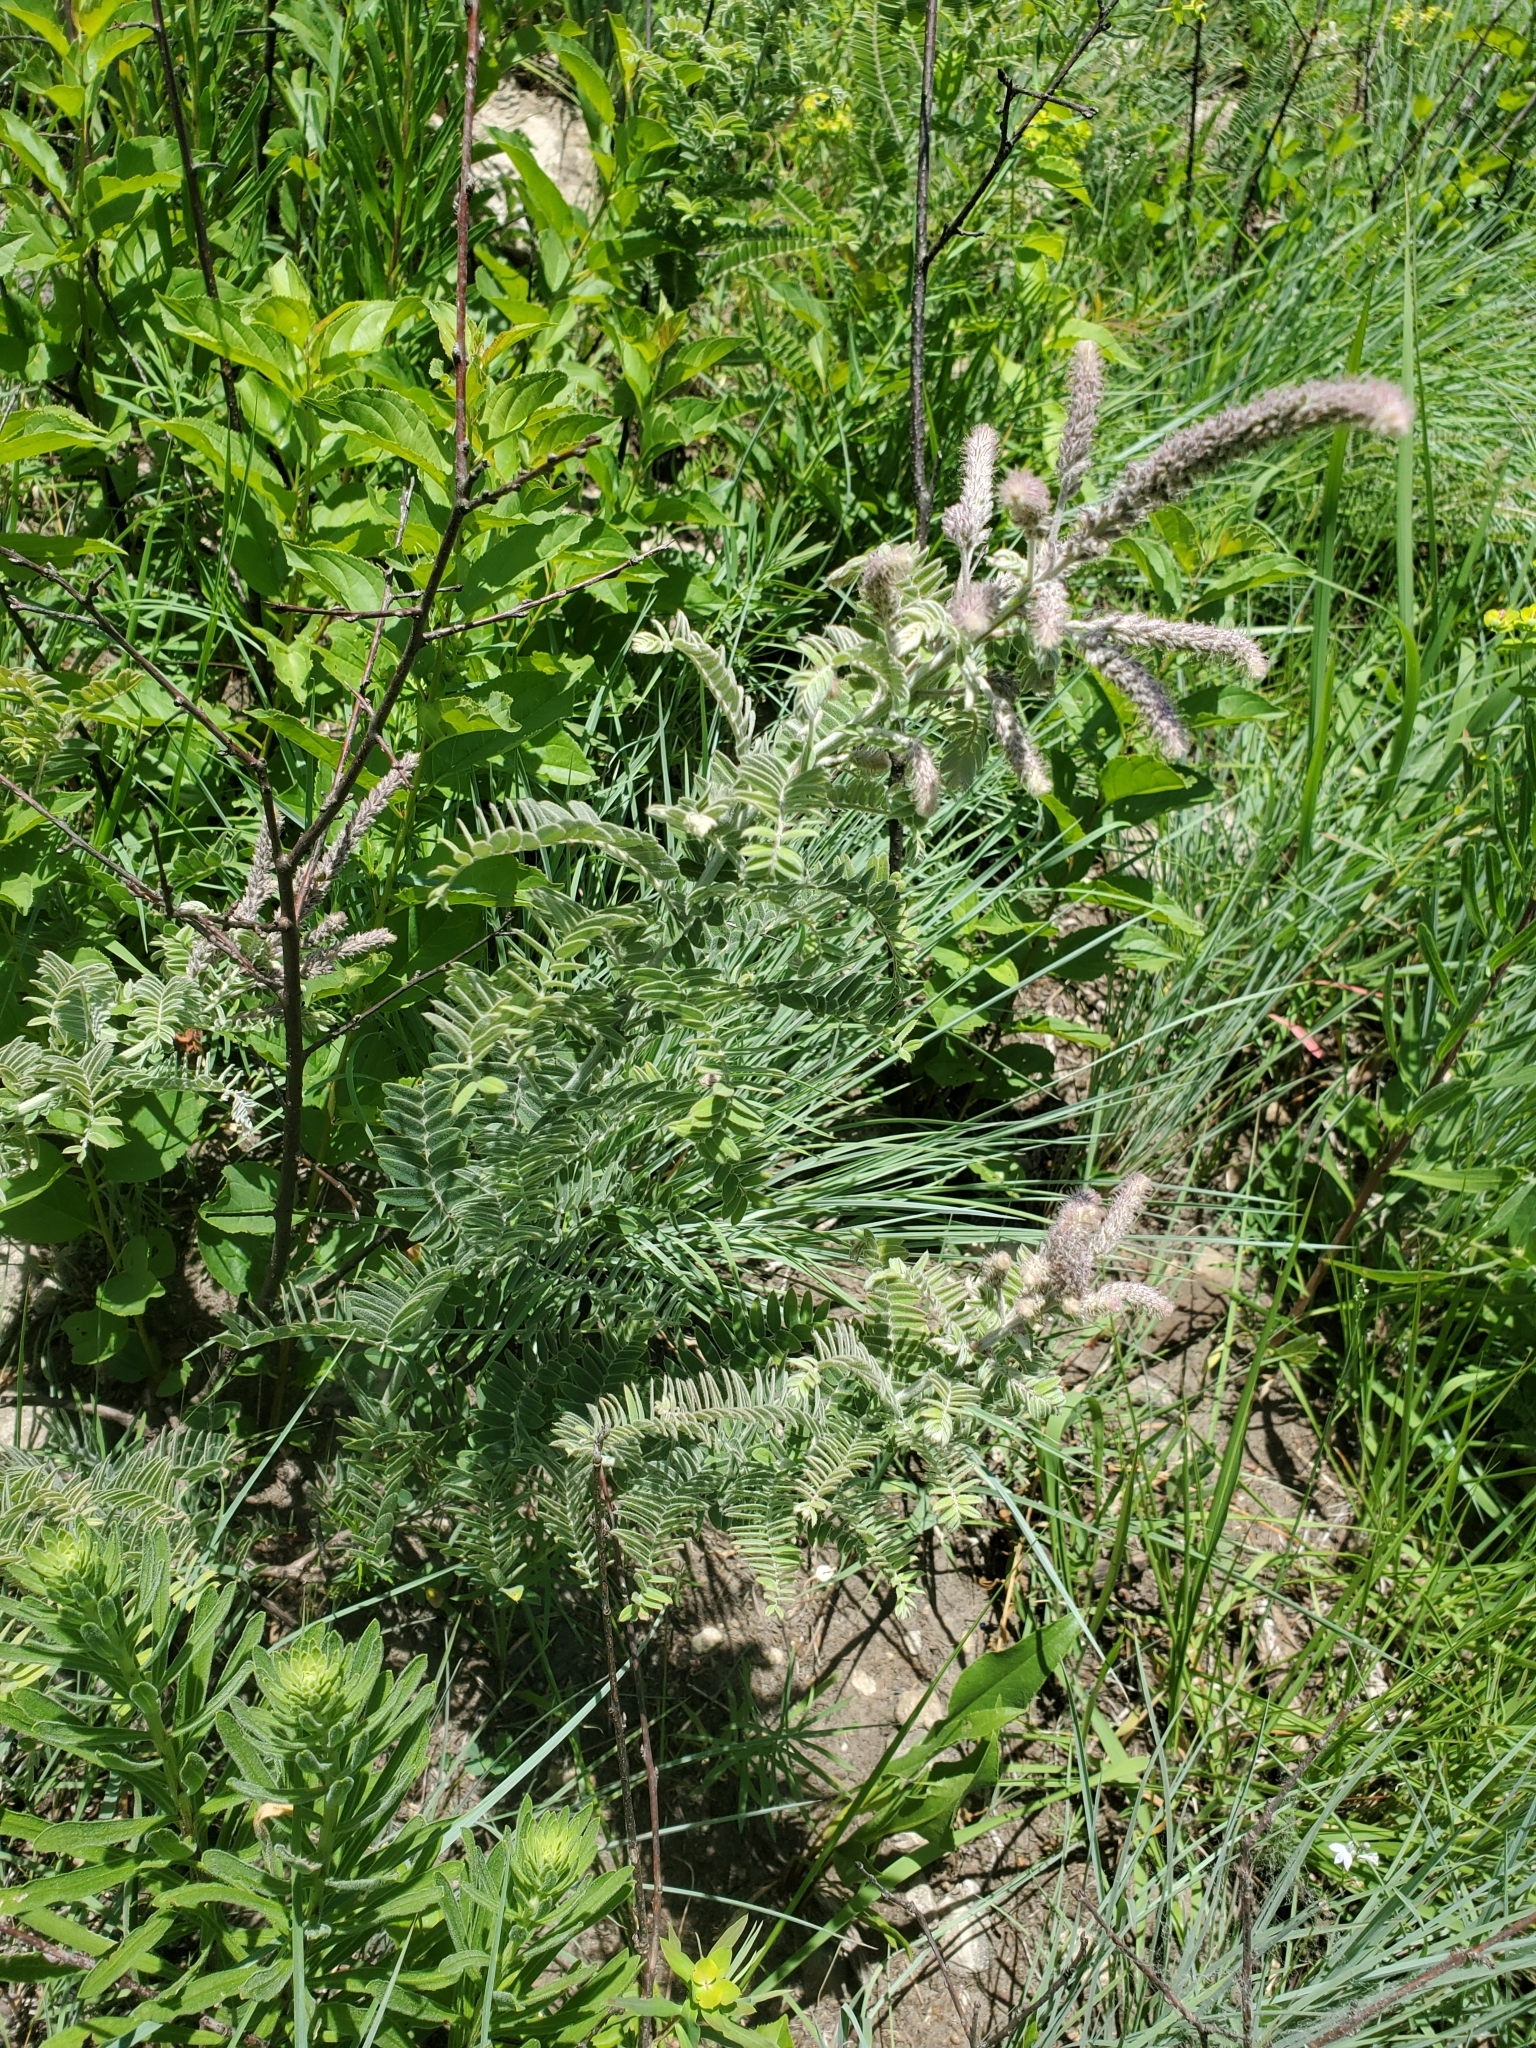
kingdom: Plantae
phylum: Tracheophyta
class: Magnoliopsida
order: Fabales
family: Fabaceae
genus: Amorpha
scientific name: Amorpha canescens
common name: Leadplant
